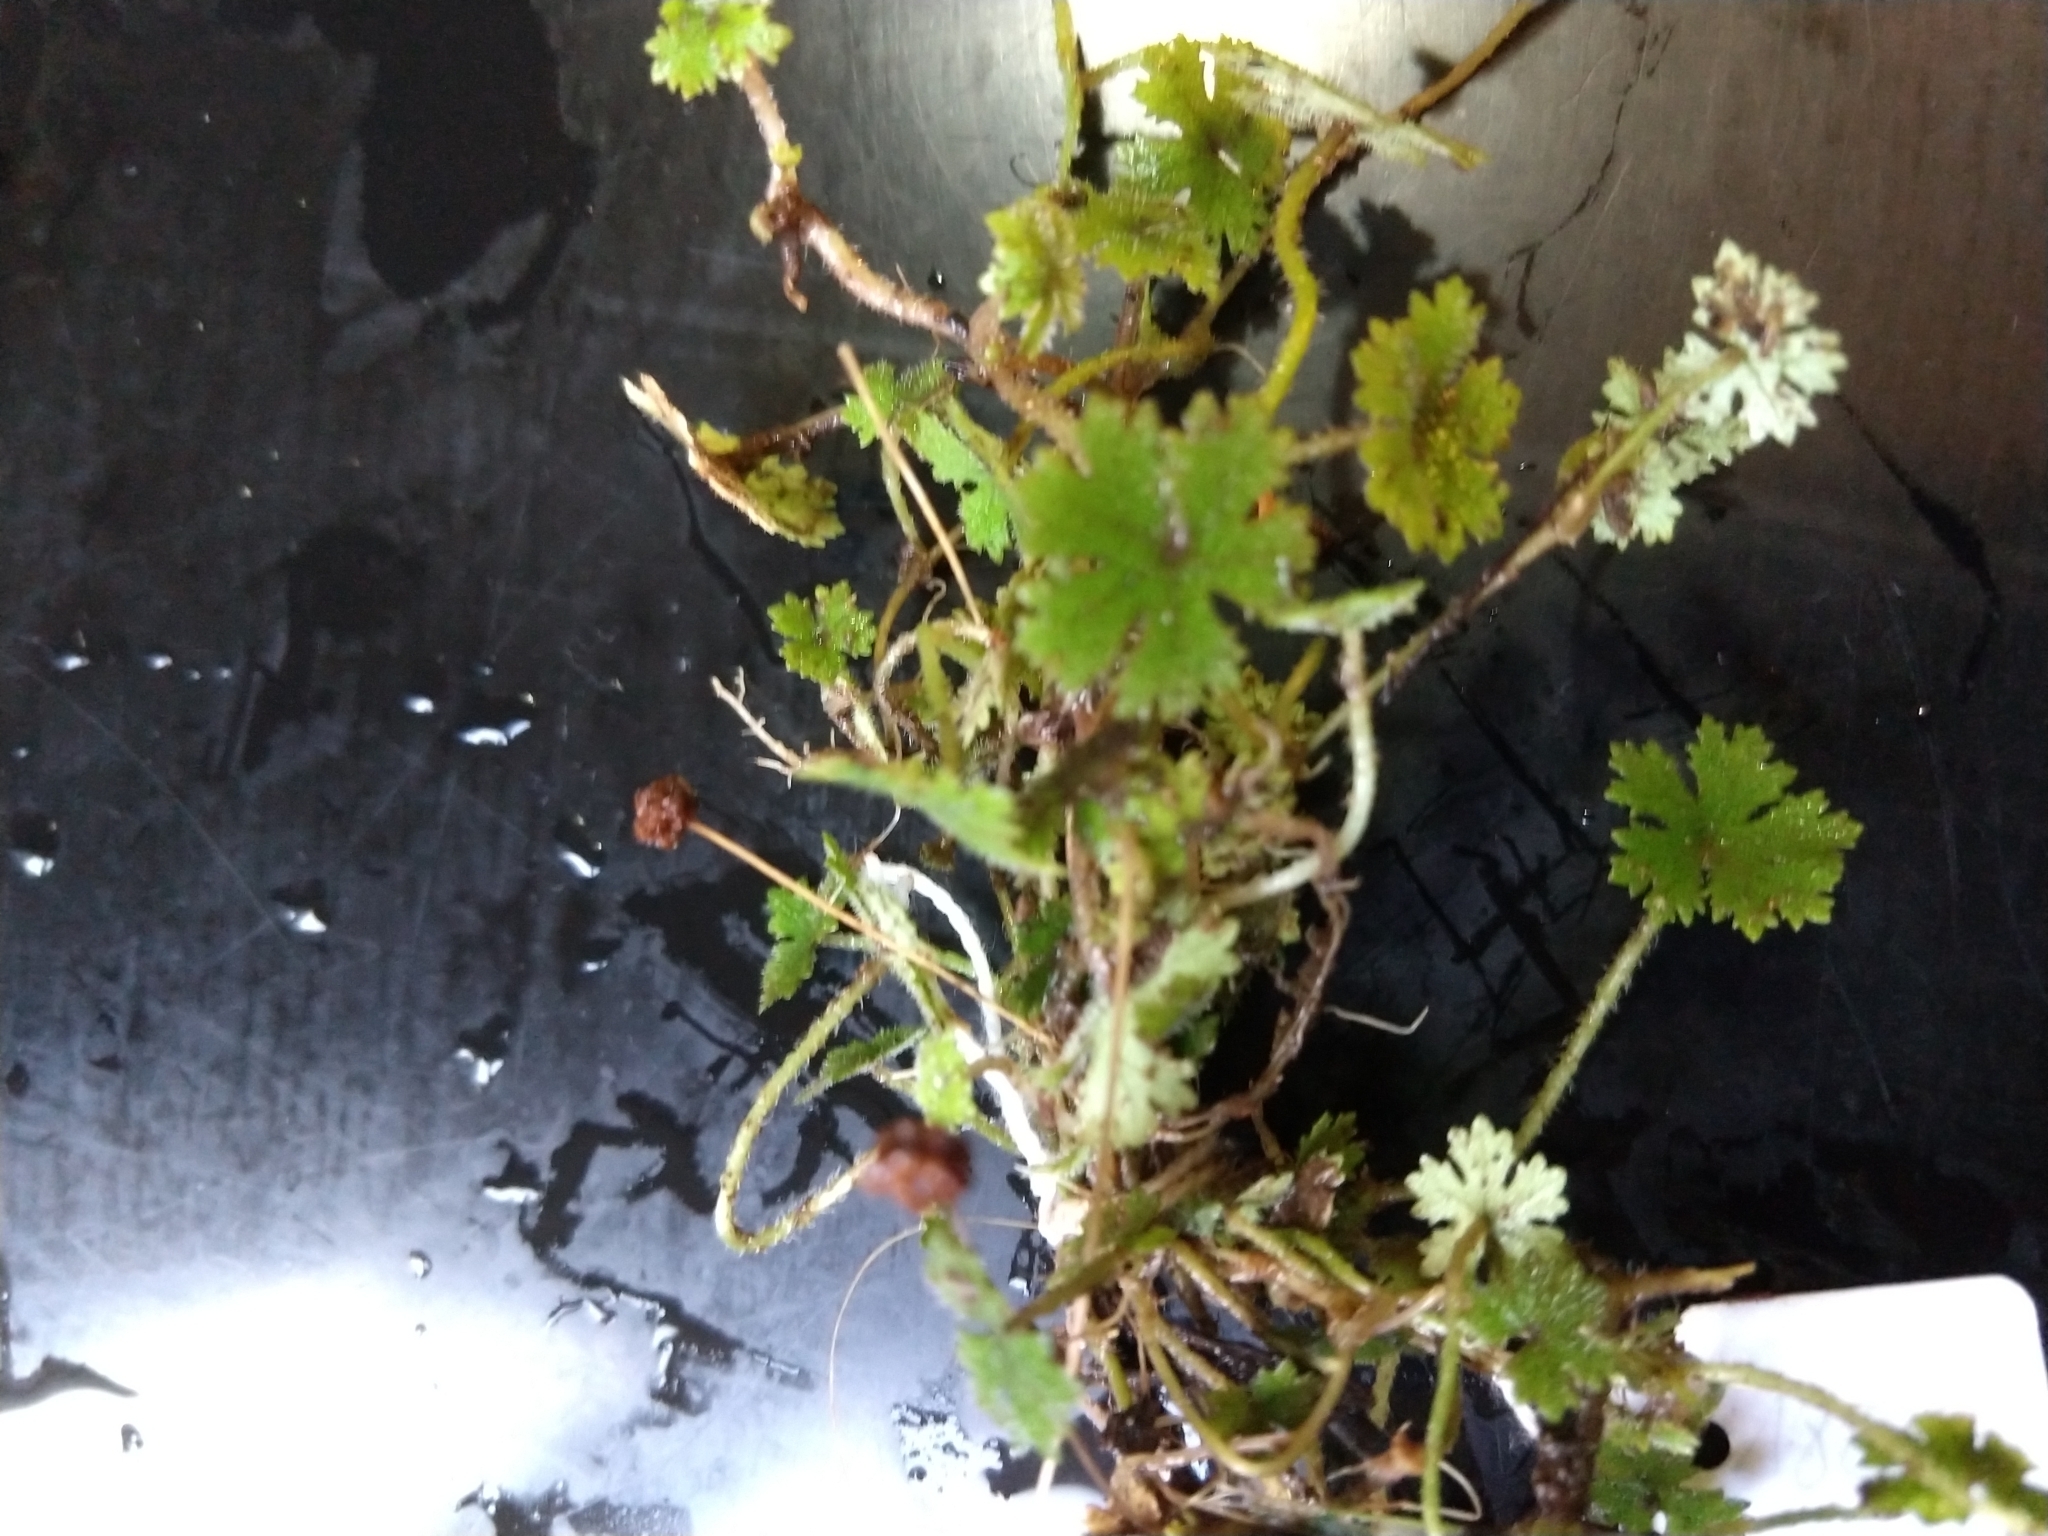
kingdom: Plantae
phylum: Tracheophyta
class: Magnoliopsida
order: Apiales
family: Araliaceae
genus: Hydrocotyle
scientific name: Hydrocotyle dissecta
